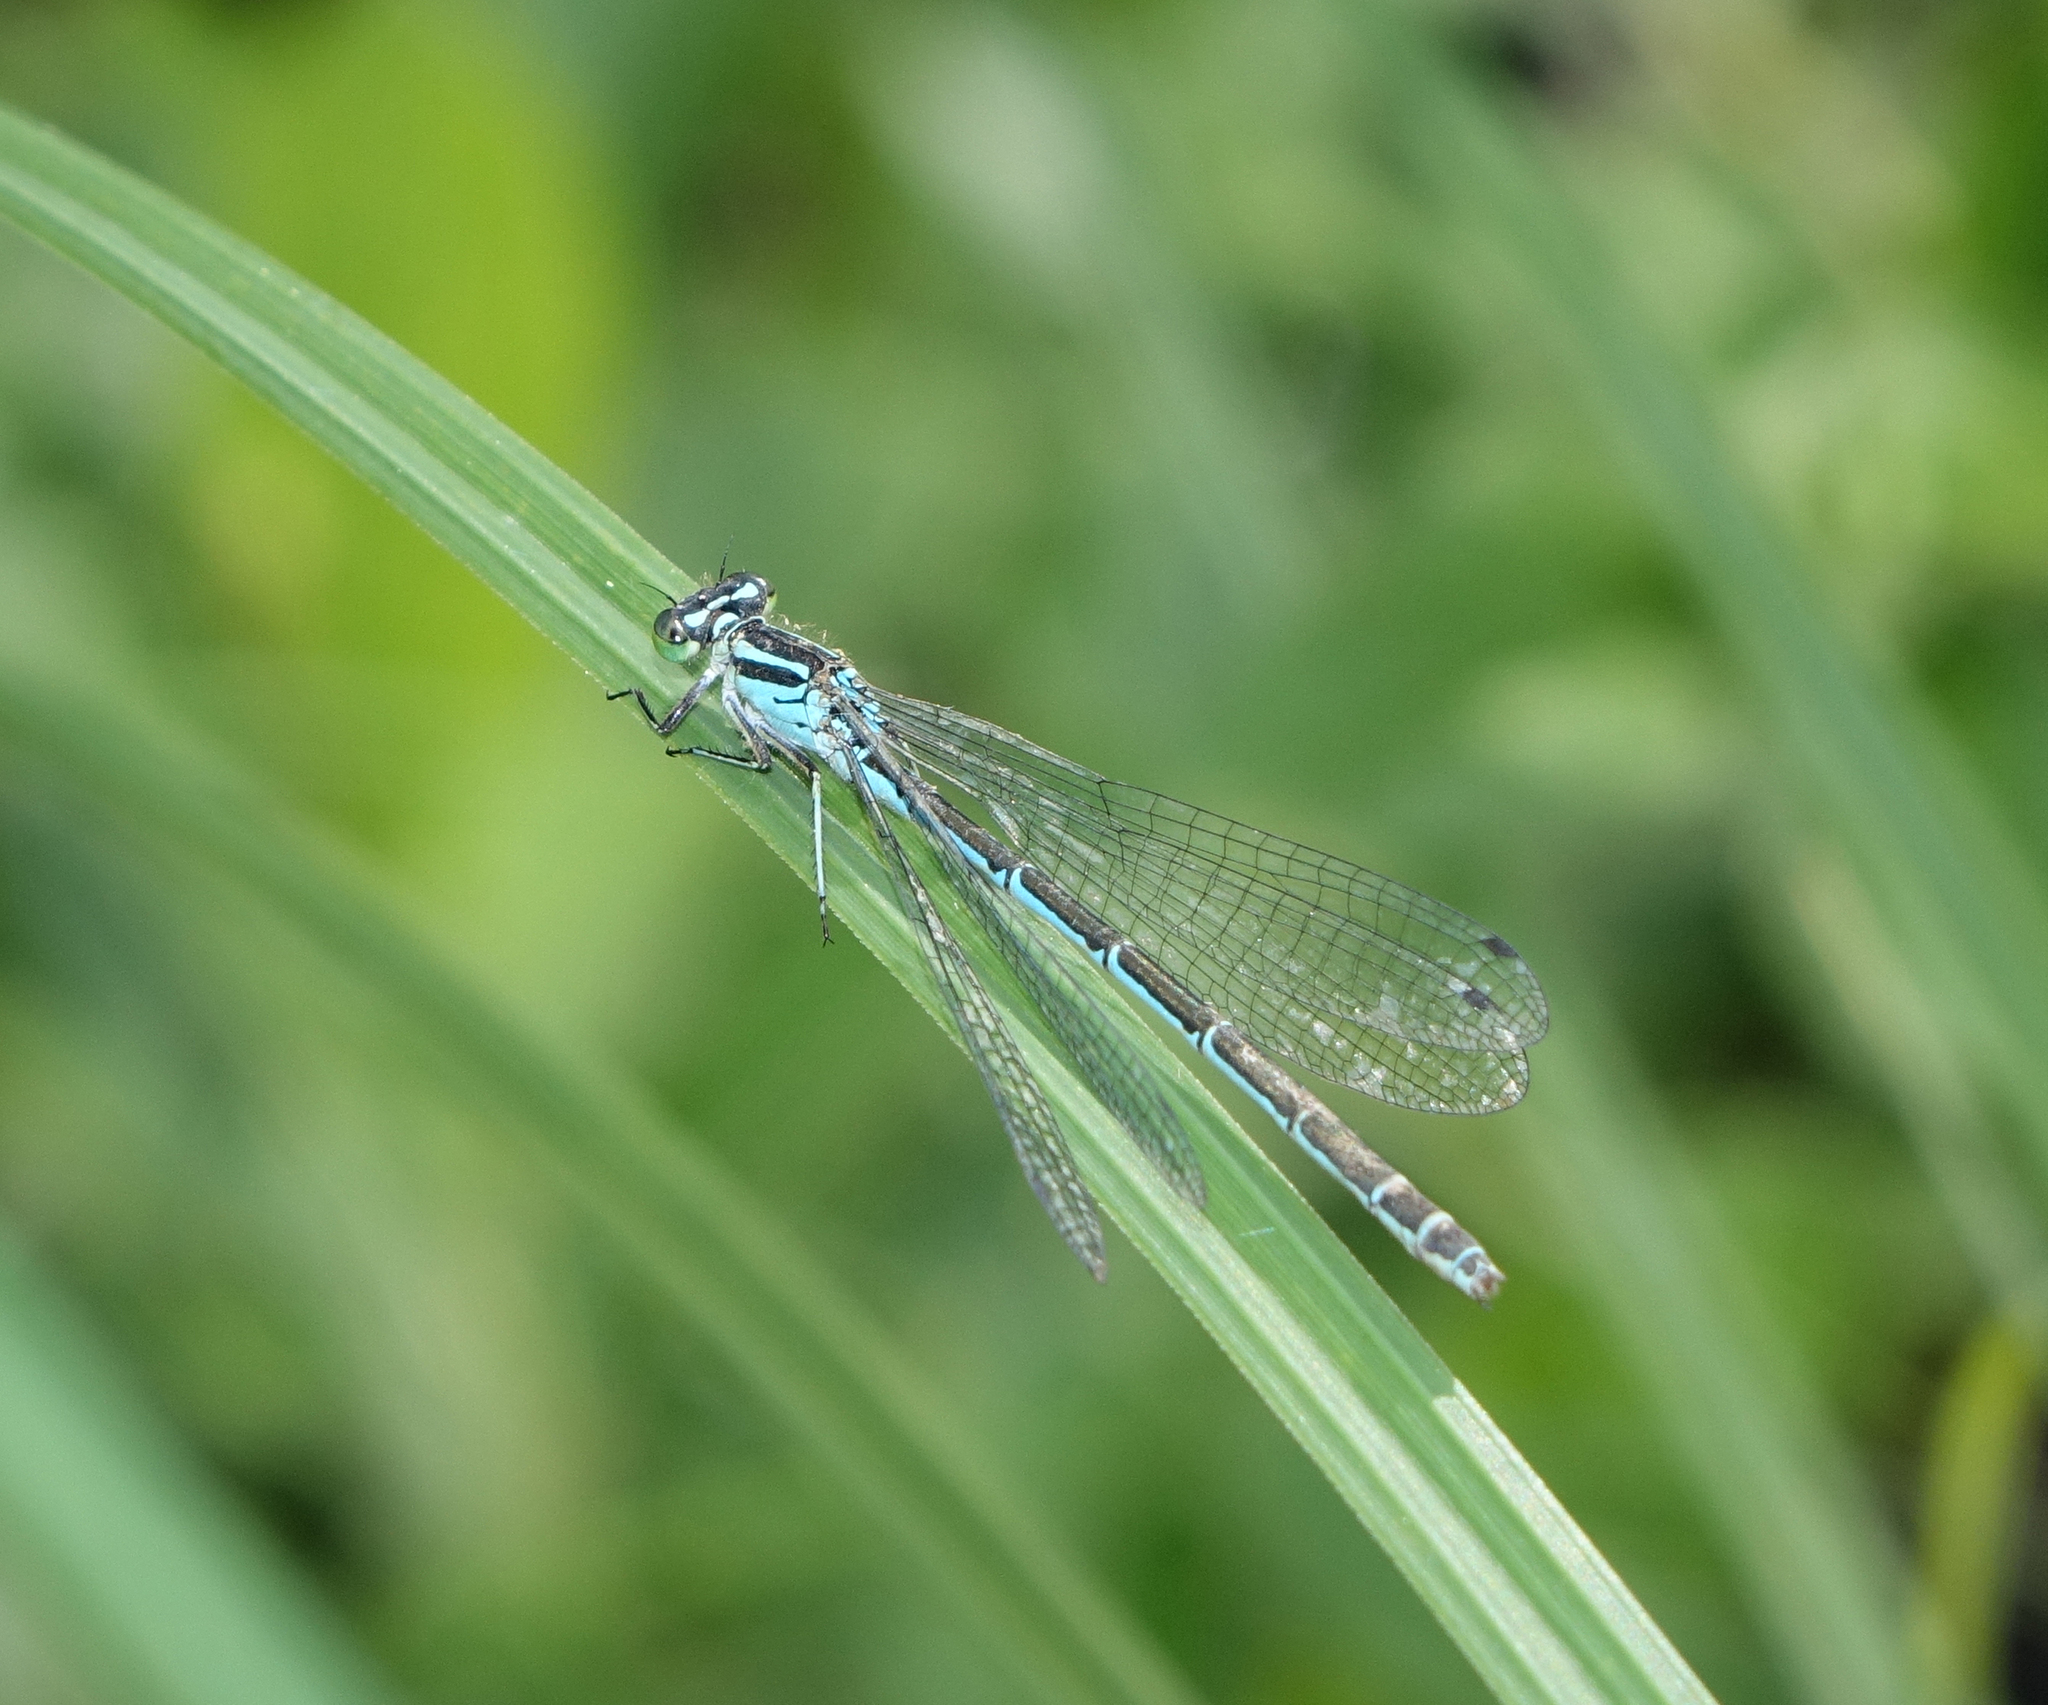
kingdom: Animalia
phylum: Arthropoda
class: Insecta
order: Odonata
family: Coenagrionidae
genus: Coenagrion
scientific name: Coenagrion hastulatum
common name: Spearhead bluet
